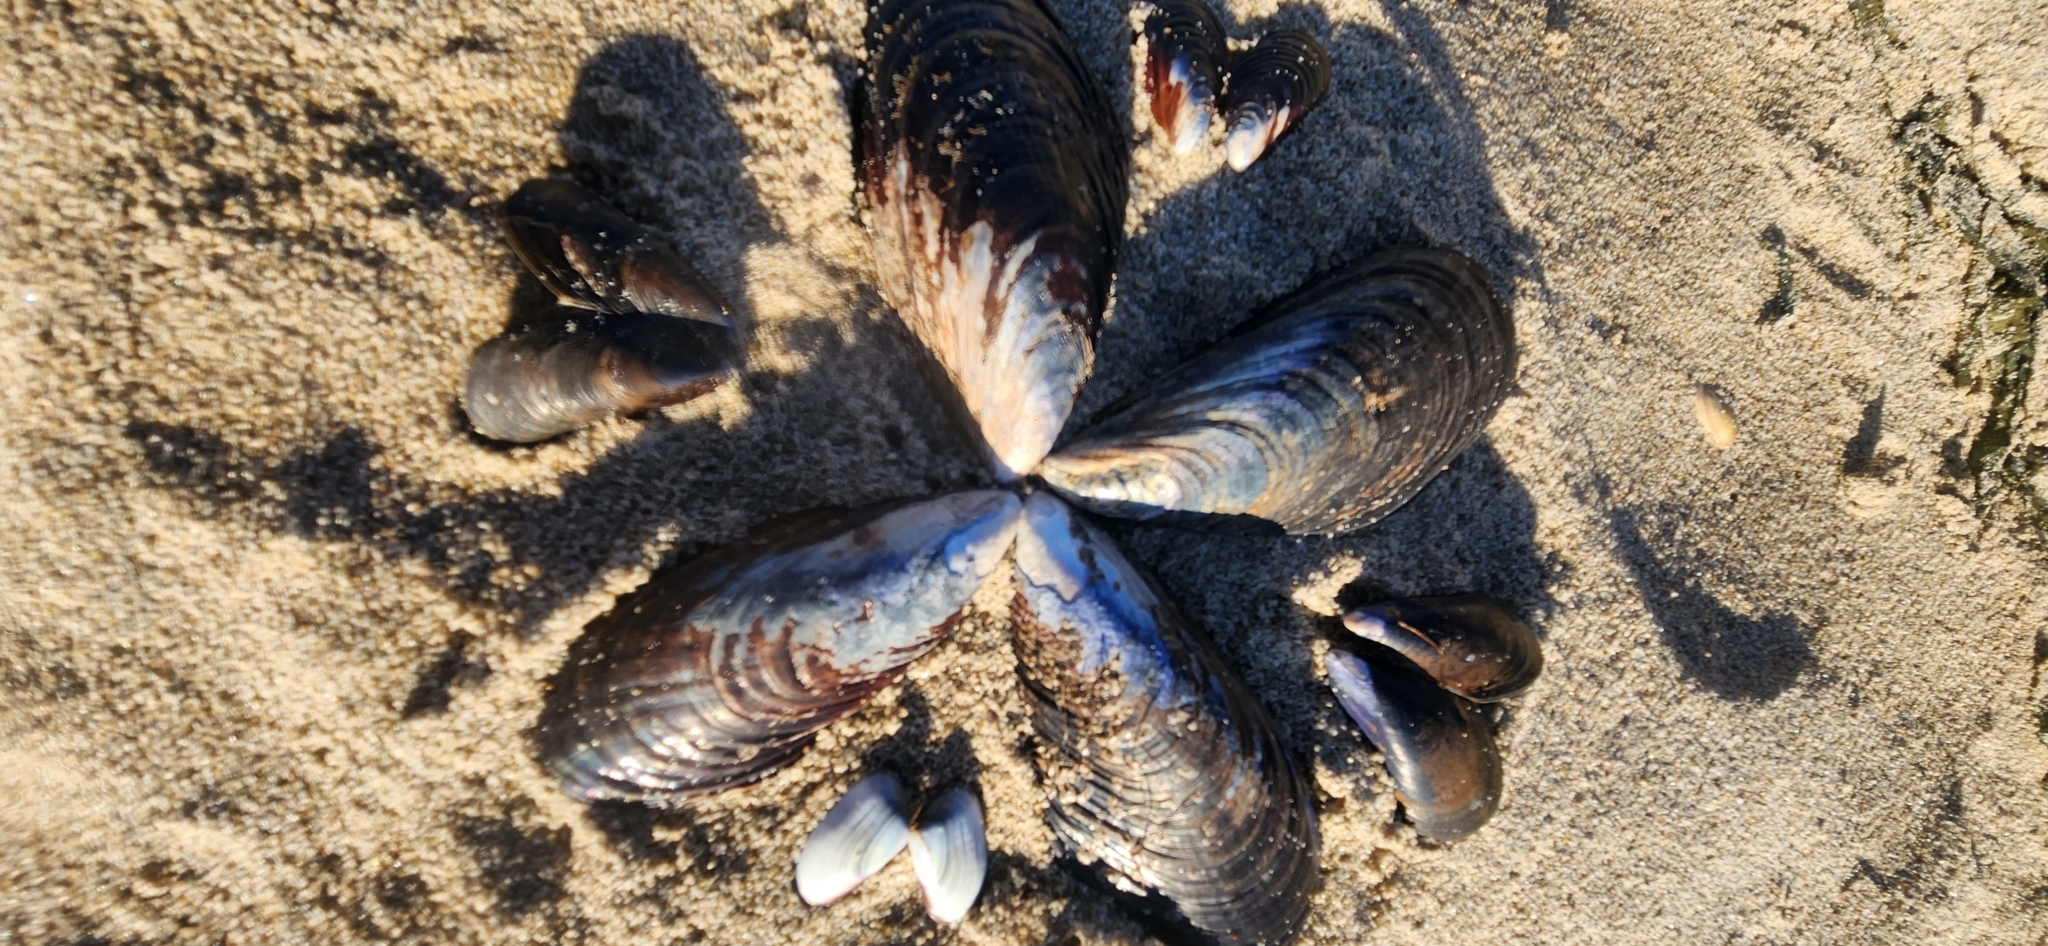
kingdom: Animalia
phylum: Mollusca
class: Bivalvia
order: Mytilida
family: Mytilidae
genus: Mytilus
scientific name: Mytilus galloprovincialis
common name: Mediterranean mussel
